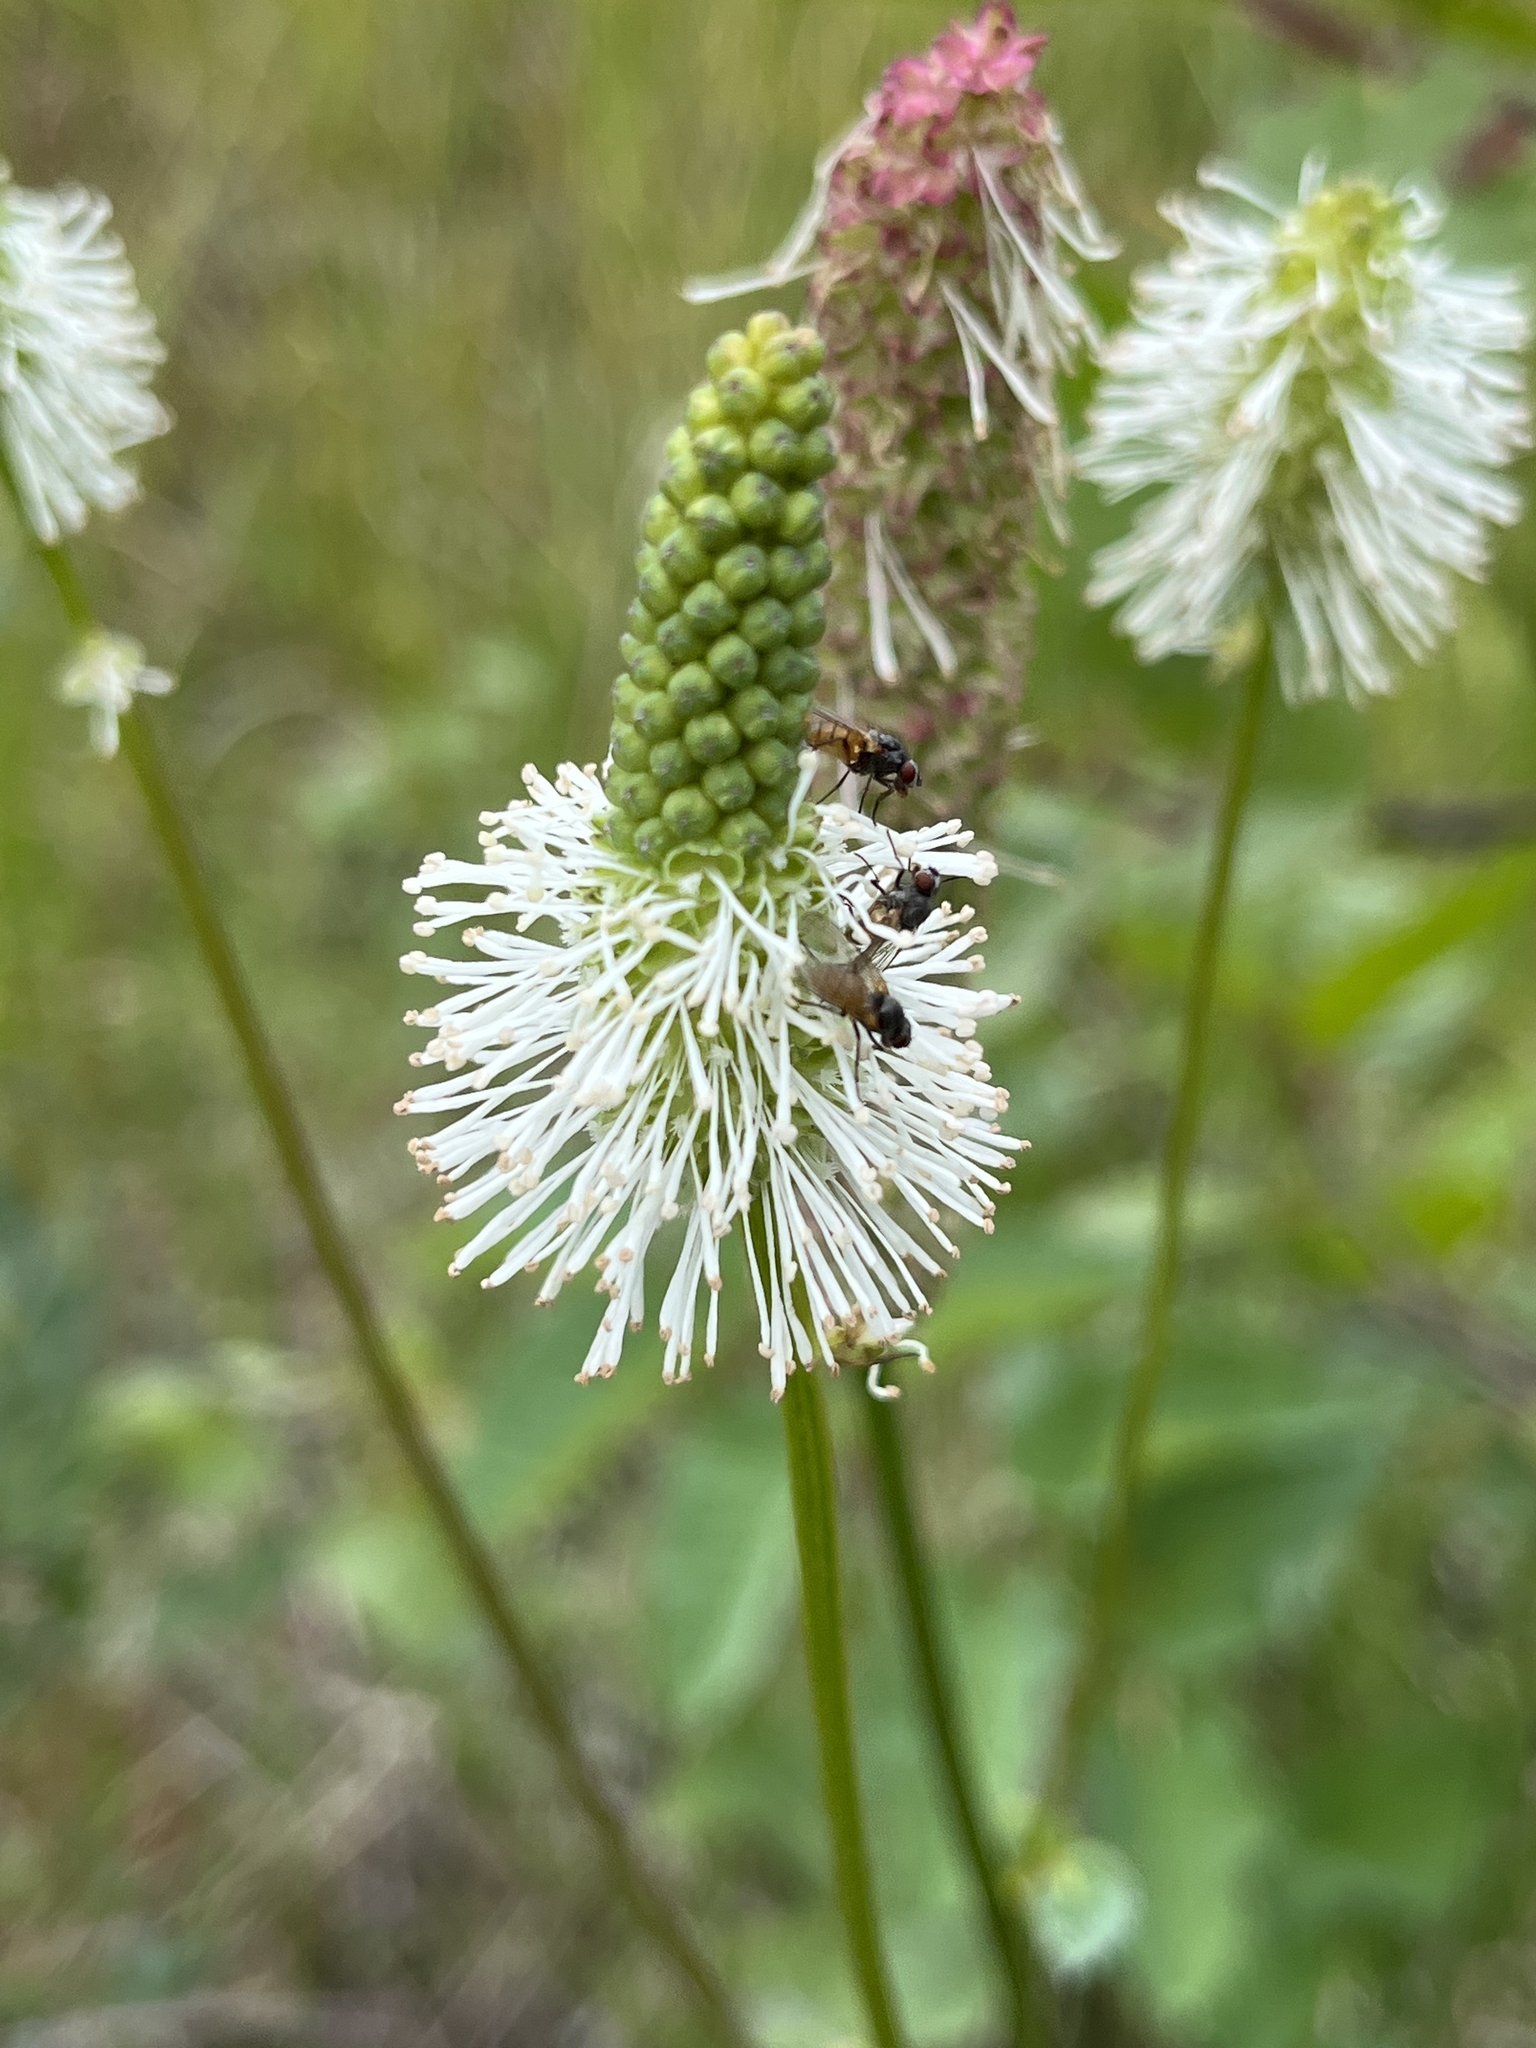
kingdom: Plantae
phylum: Tracheophyta
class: Magnoliopsida
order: Rosales
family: Rosaceae
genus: Sanguisorba
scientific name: Sanguisorba stipulata
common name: Sitka burnet
